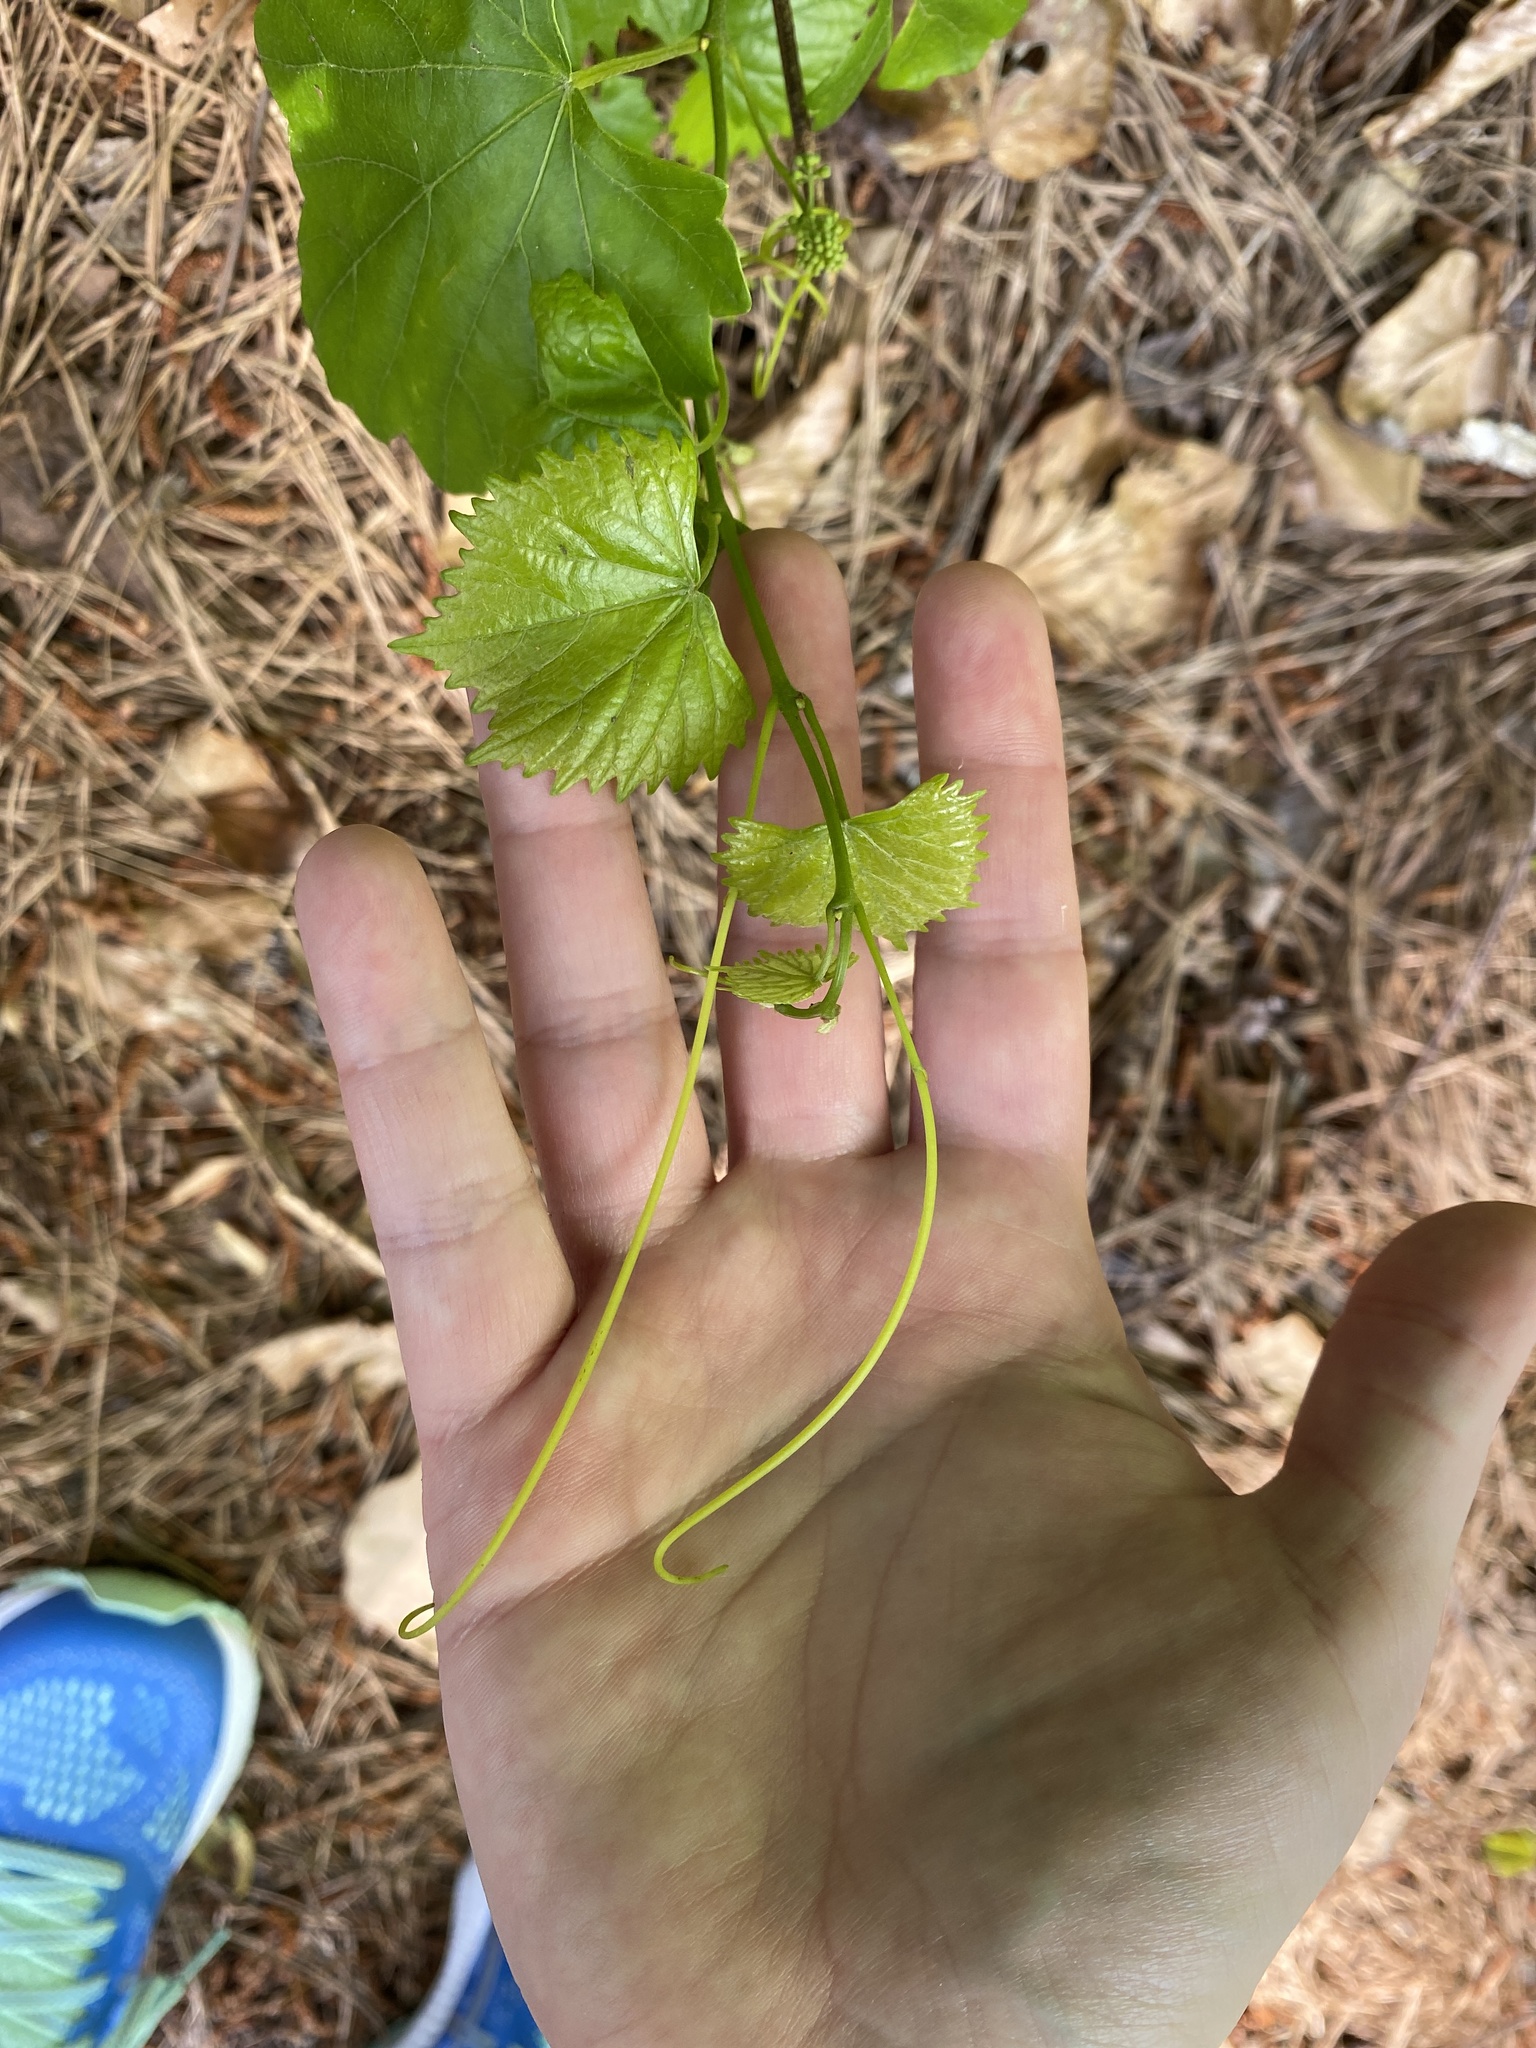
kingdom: Plantae
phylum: Tracheophyta
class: Magnoliopsida
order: Vitales
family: Vitaceae
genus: Vitis
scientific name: Vitis rotundifolia
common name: Muscadine grape
